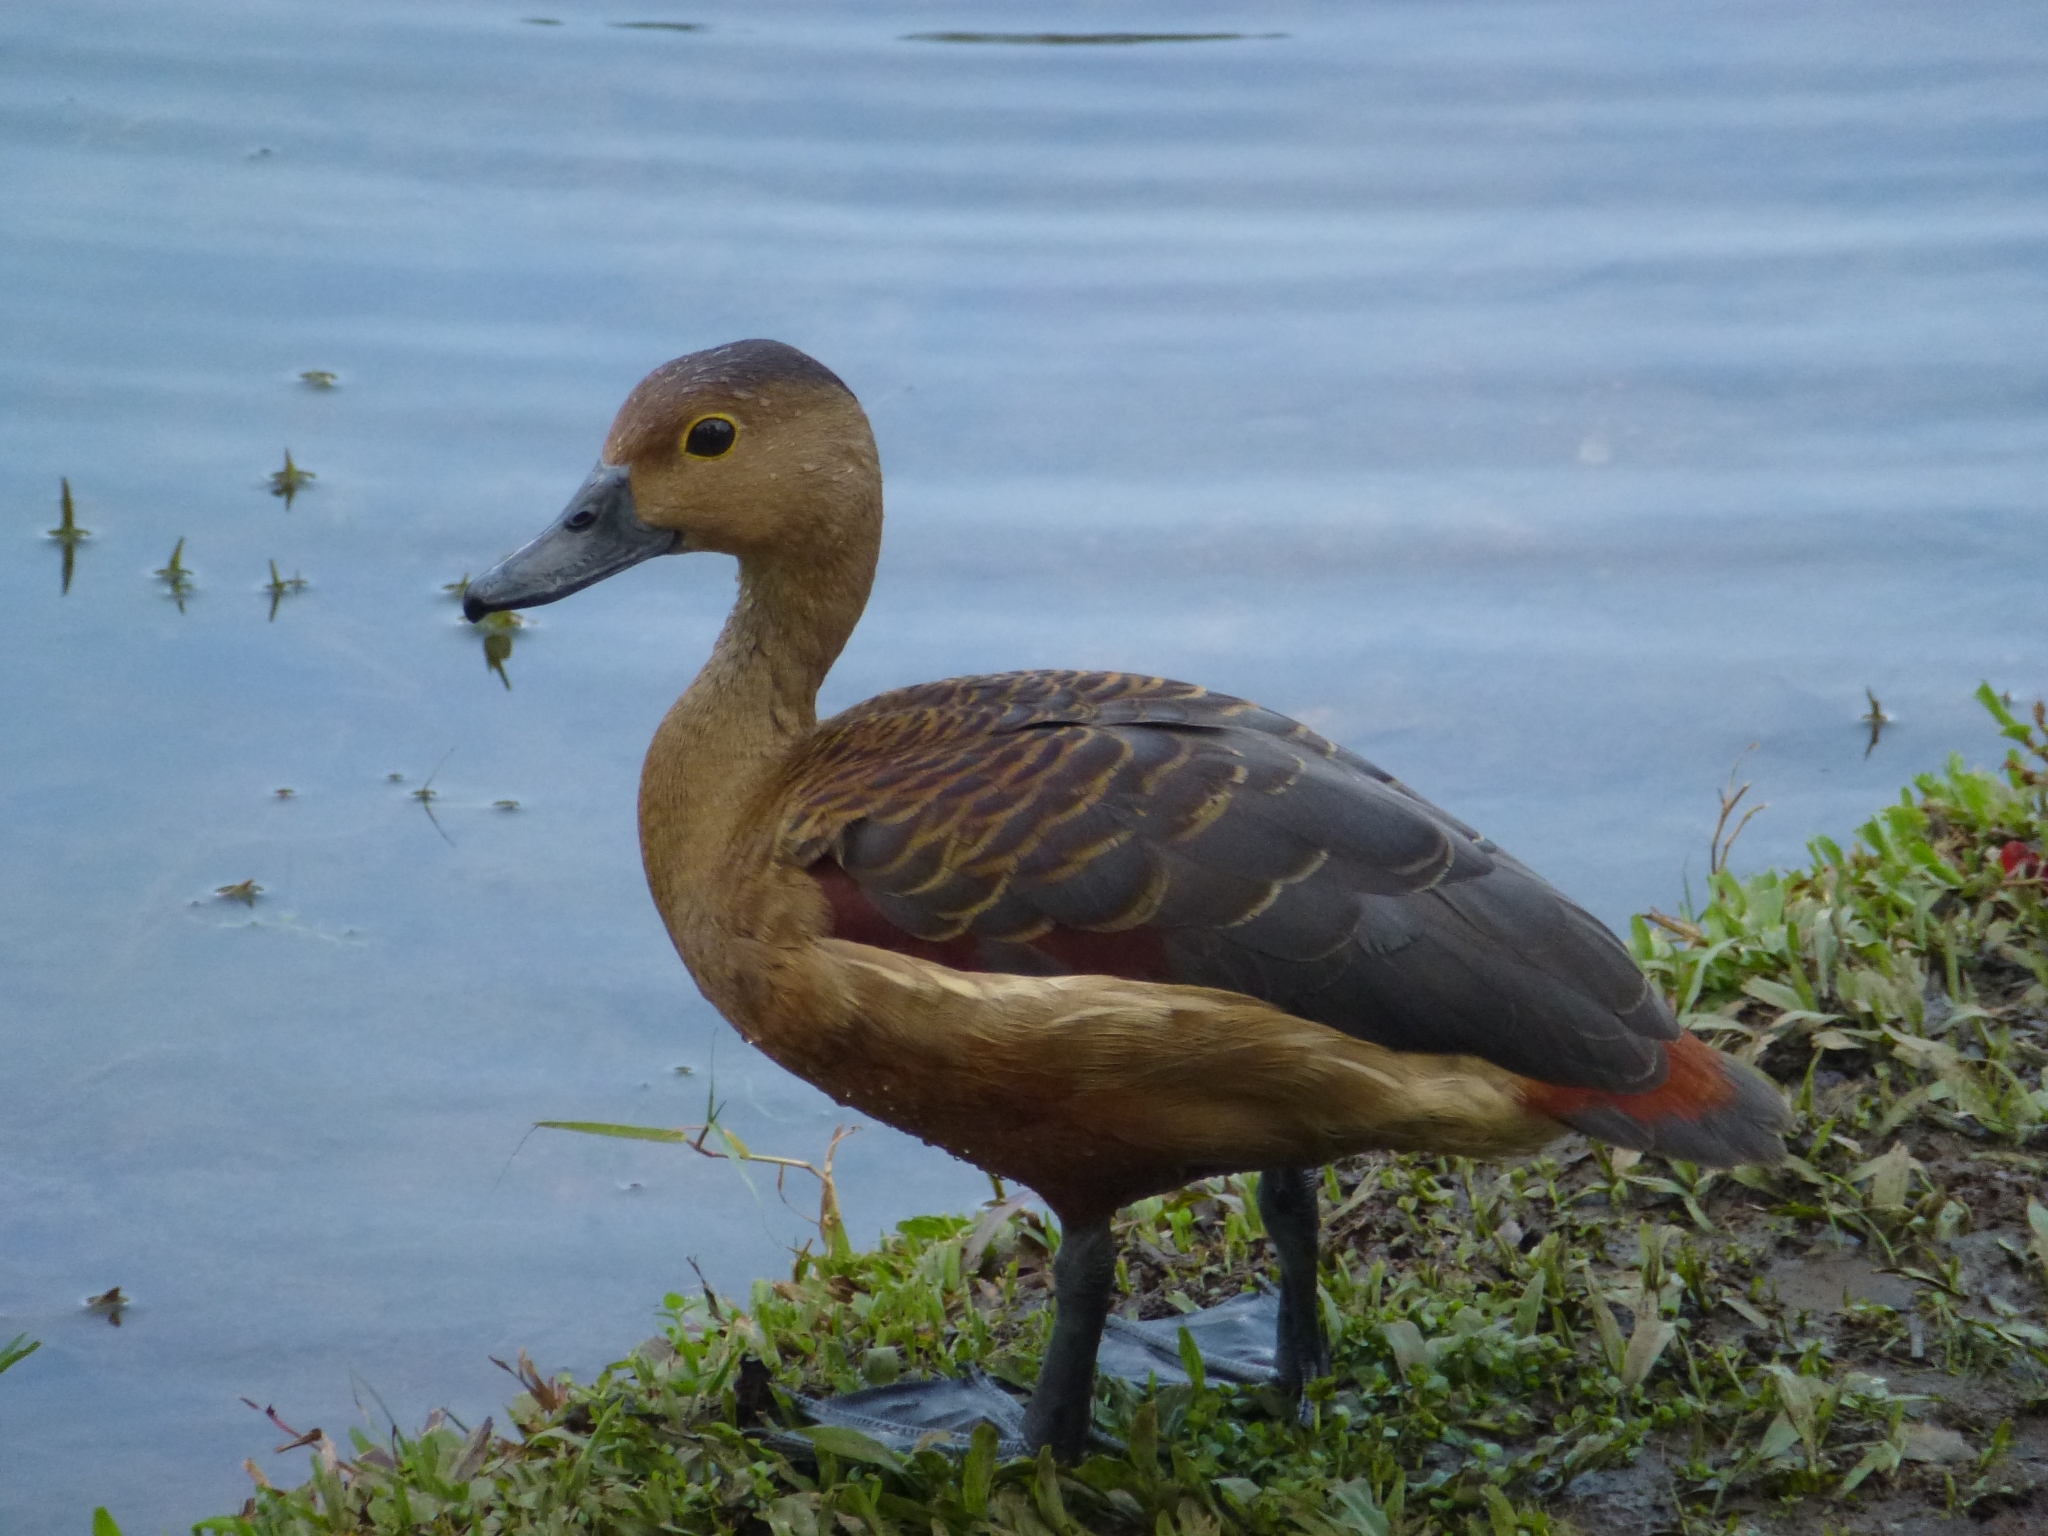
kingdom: Animalia
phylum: Chordata
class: Aves
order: Anseriformes
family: Anatidae
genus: Dendrocygna
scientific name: Dendrocygna javanica
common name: Lesser whistling-duck
